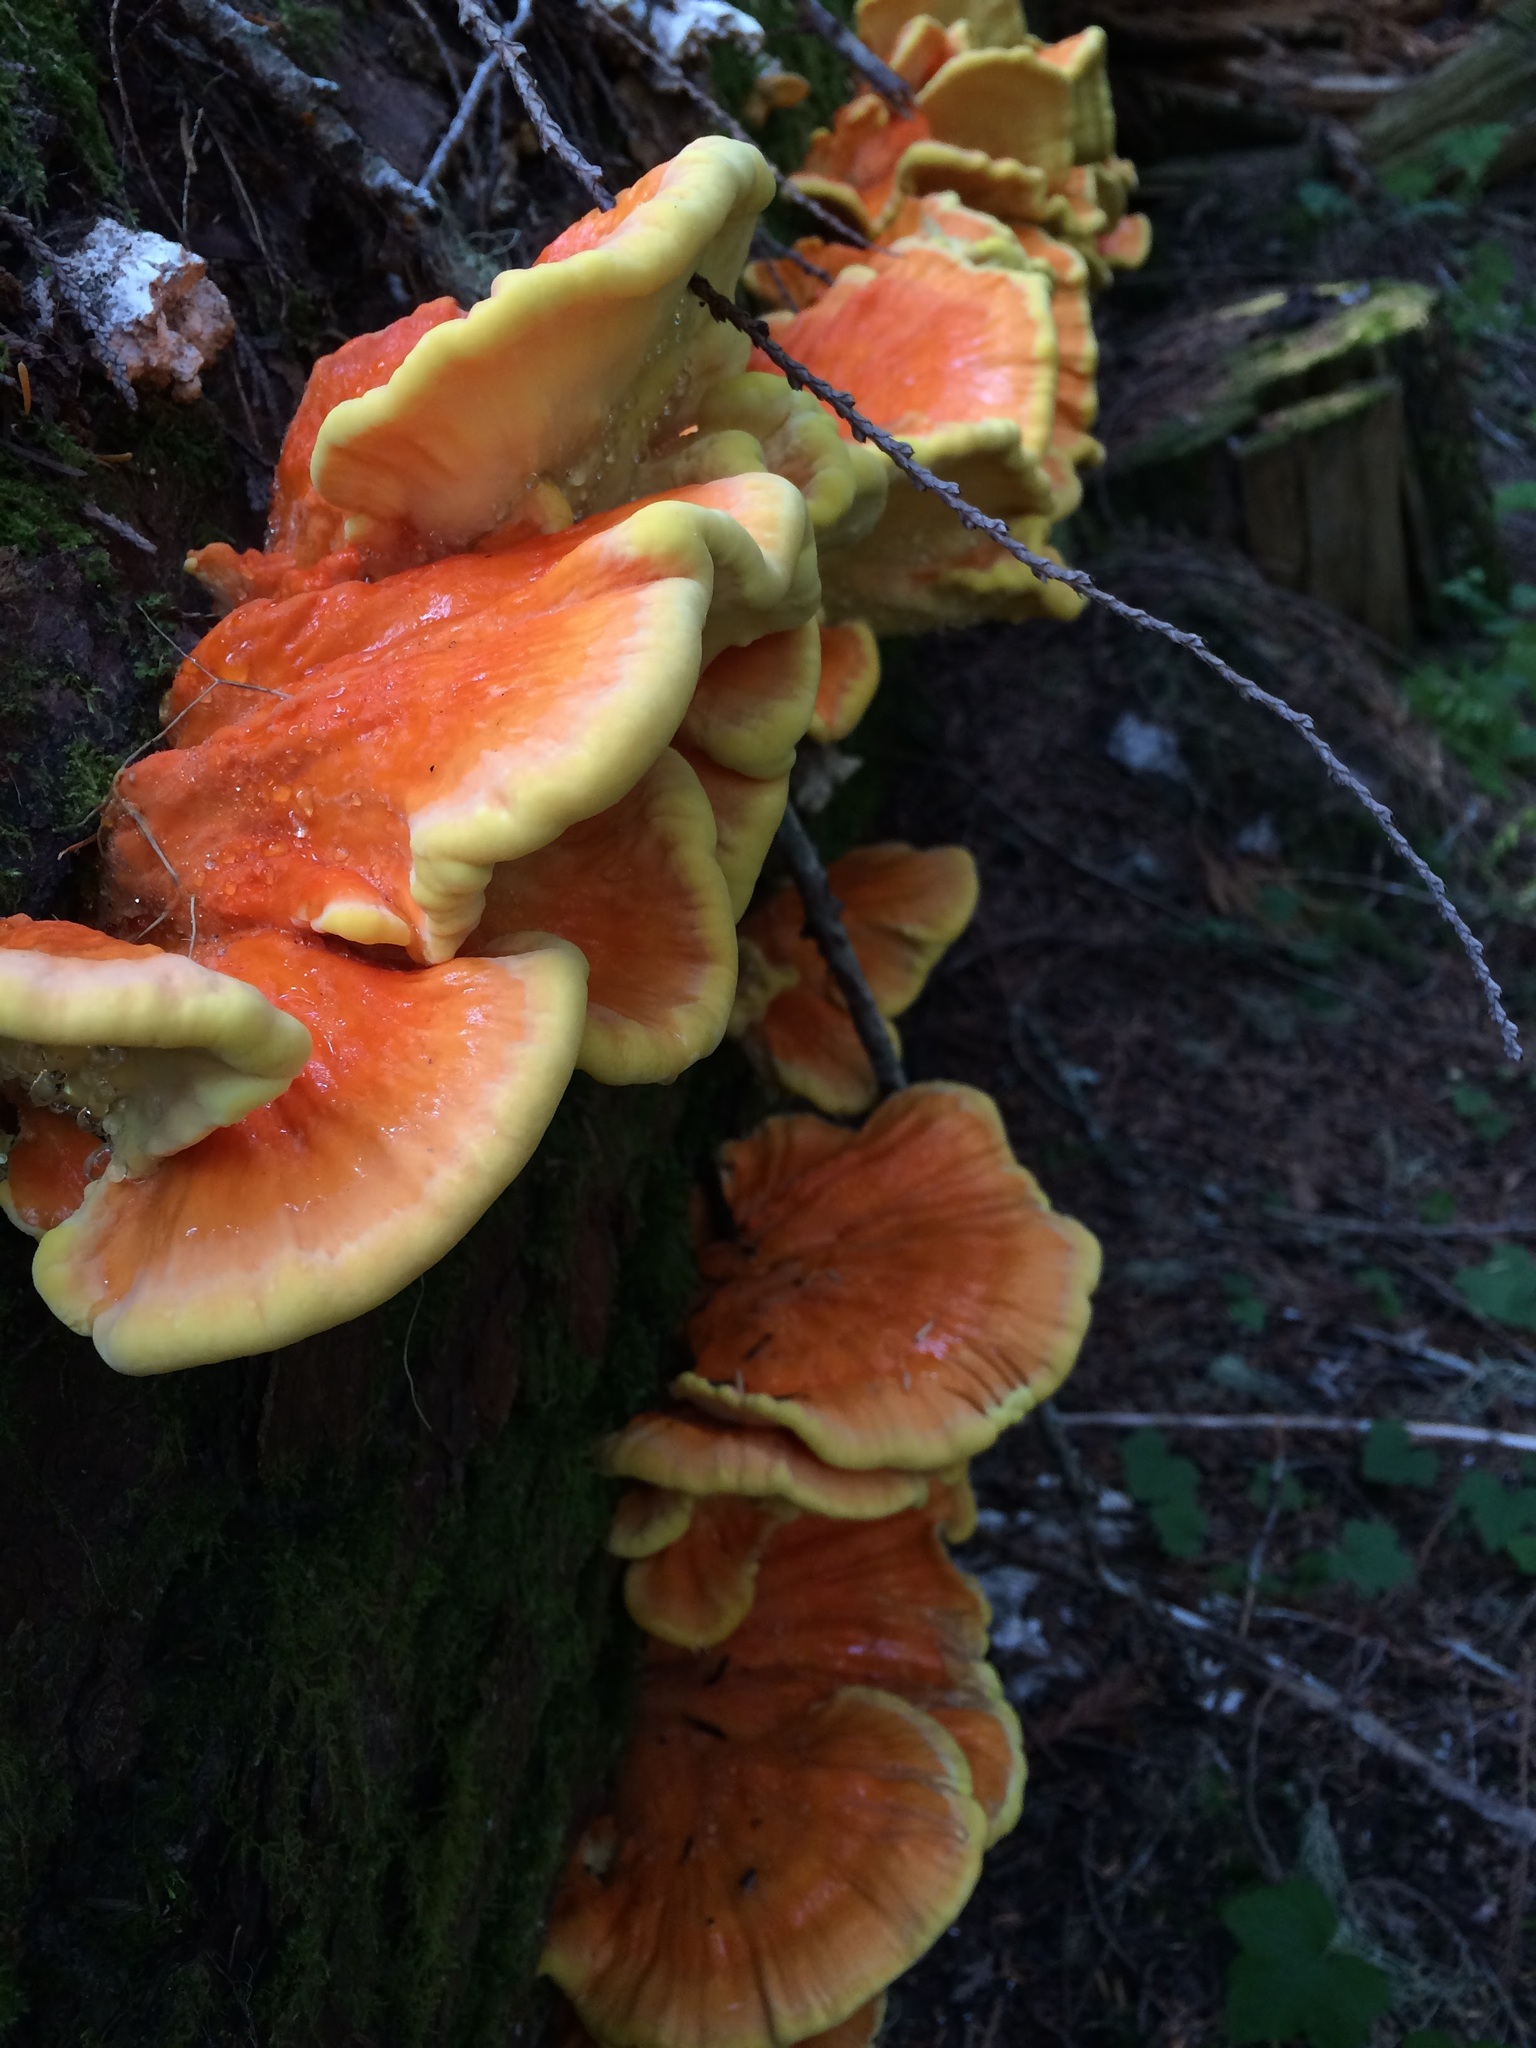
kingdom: Fungi
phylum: Basidiomycota
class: Agaricomycetes
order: Polyporales
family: Laetiporaceae
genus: Laetiporus
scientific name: Laetiporus conifericola
